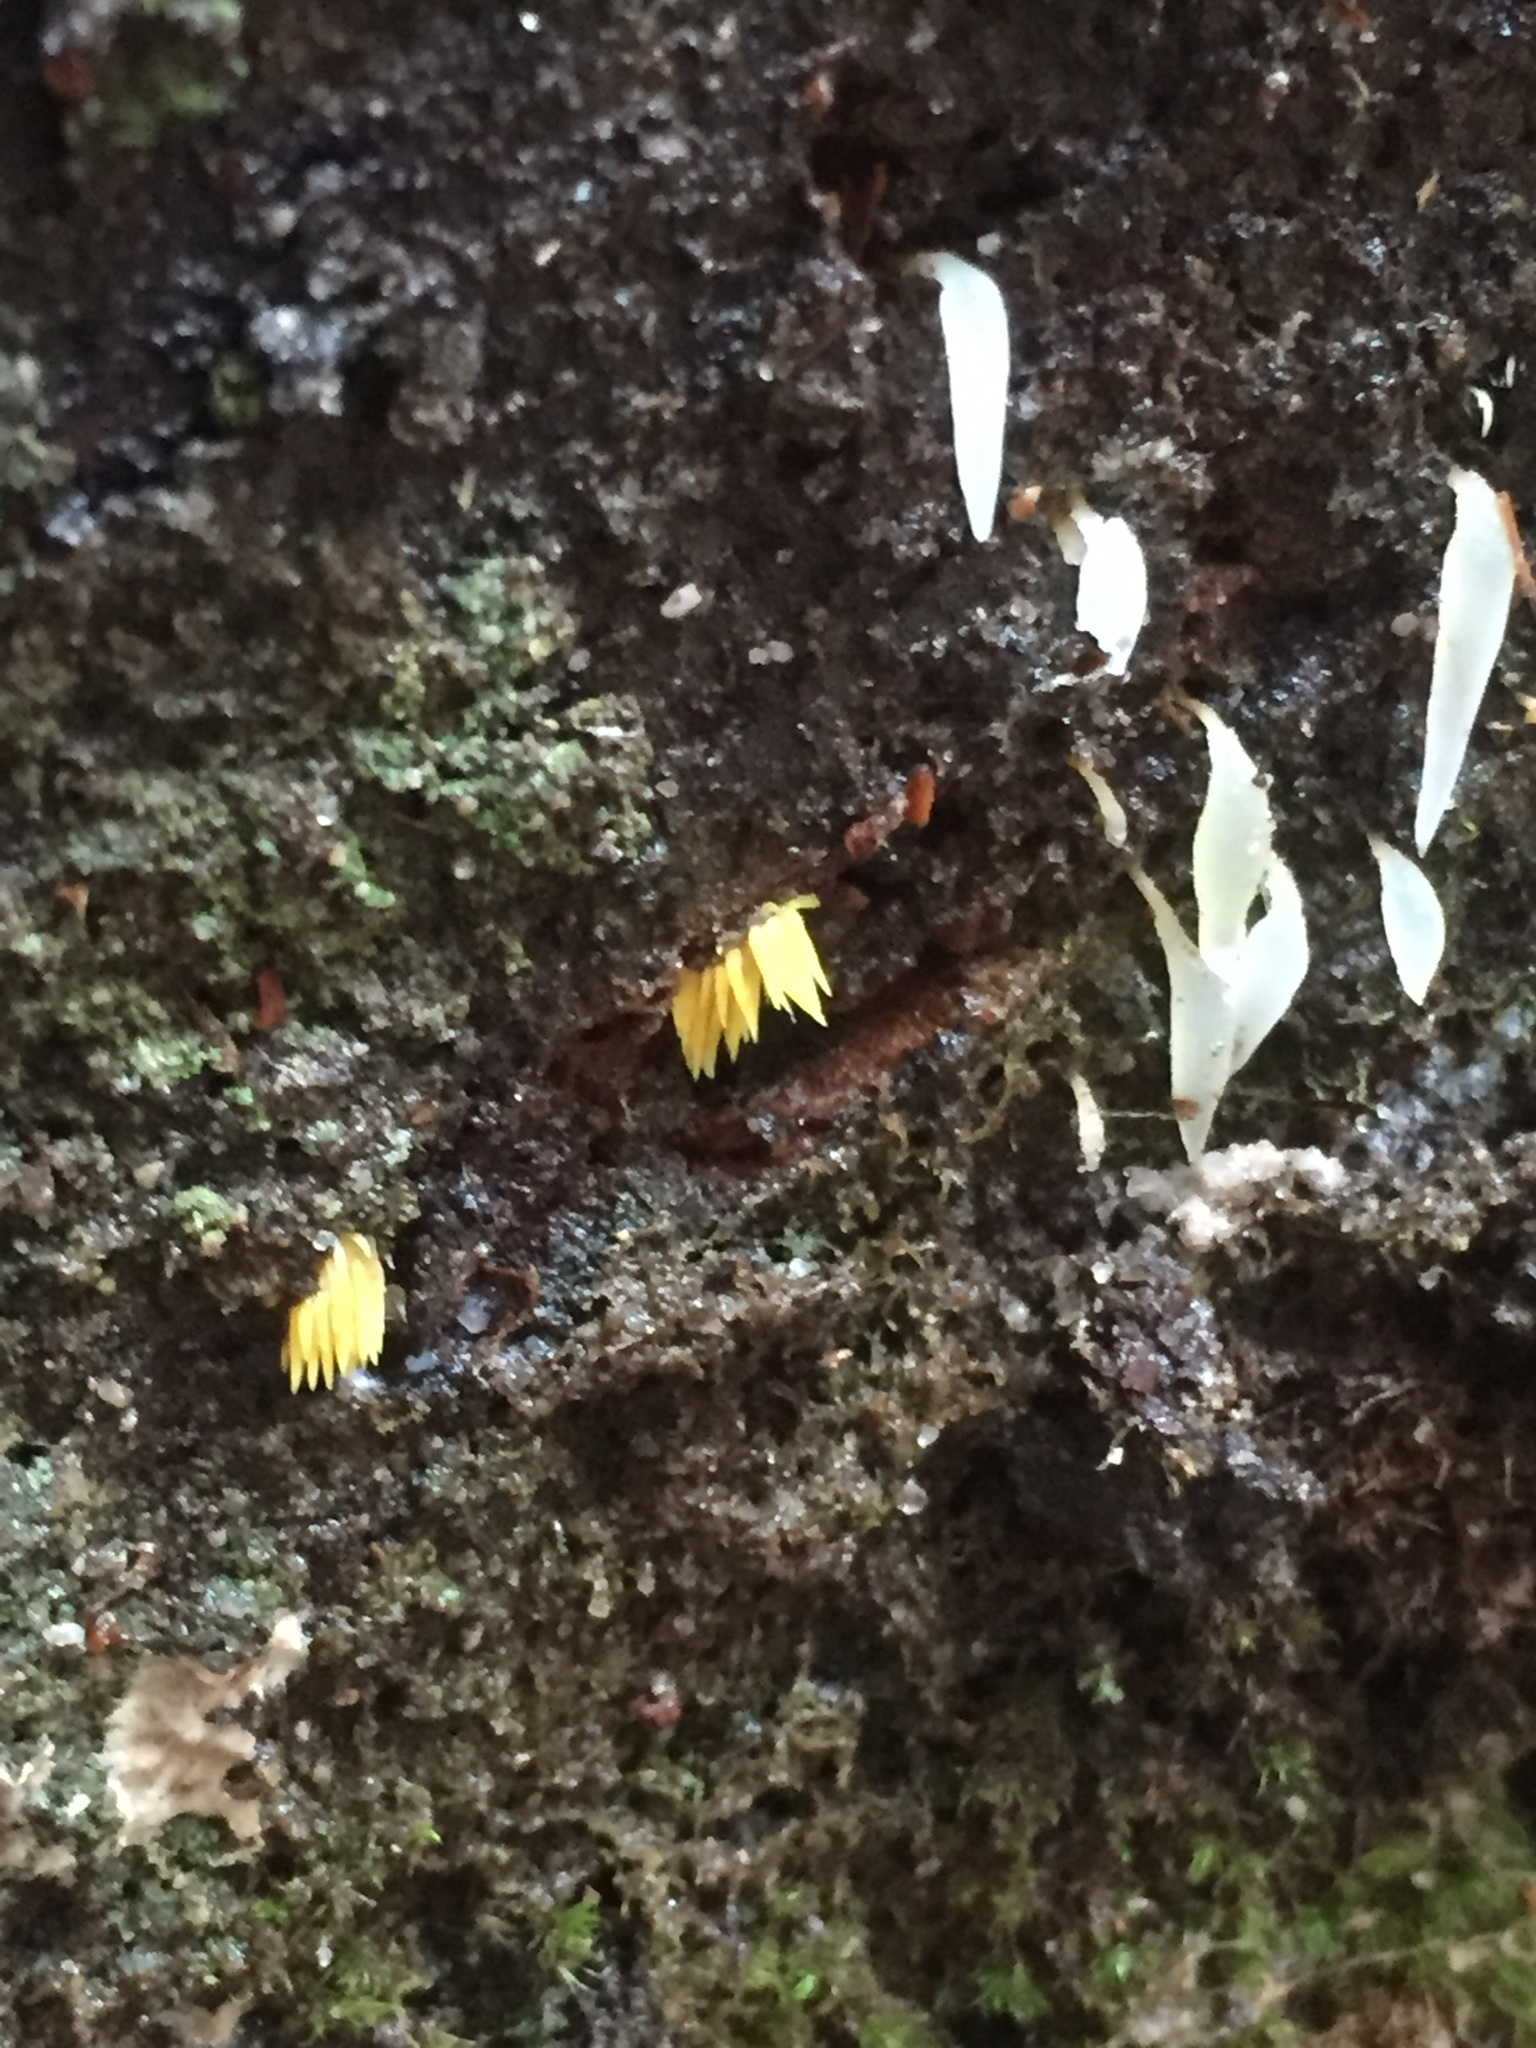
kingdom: Fungi
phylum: Basidiomycota
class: Agaricomycetes
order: Agaricales
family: Clavariaceae
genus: Mucronella
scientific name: Mucronella flava
